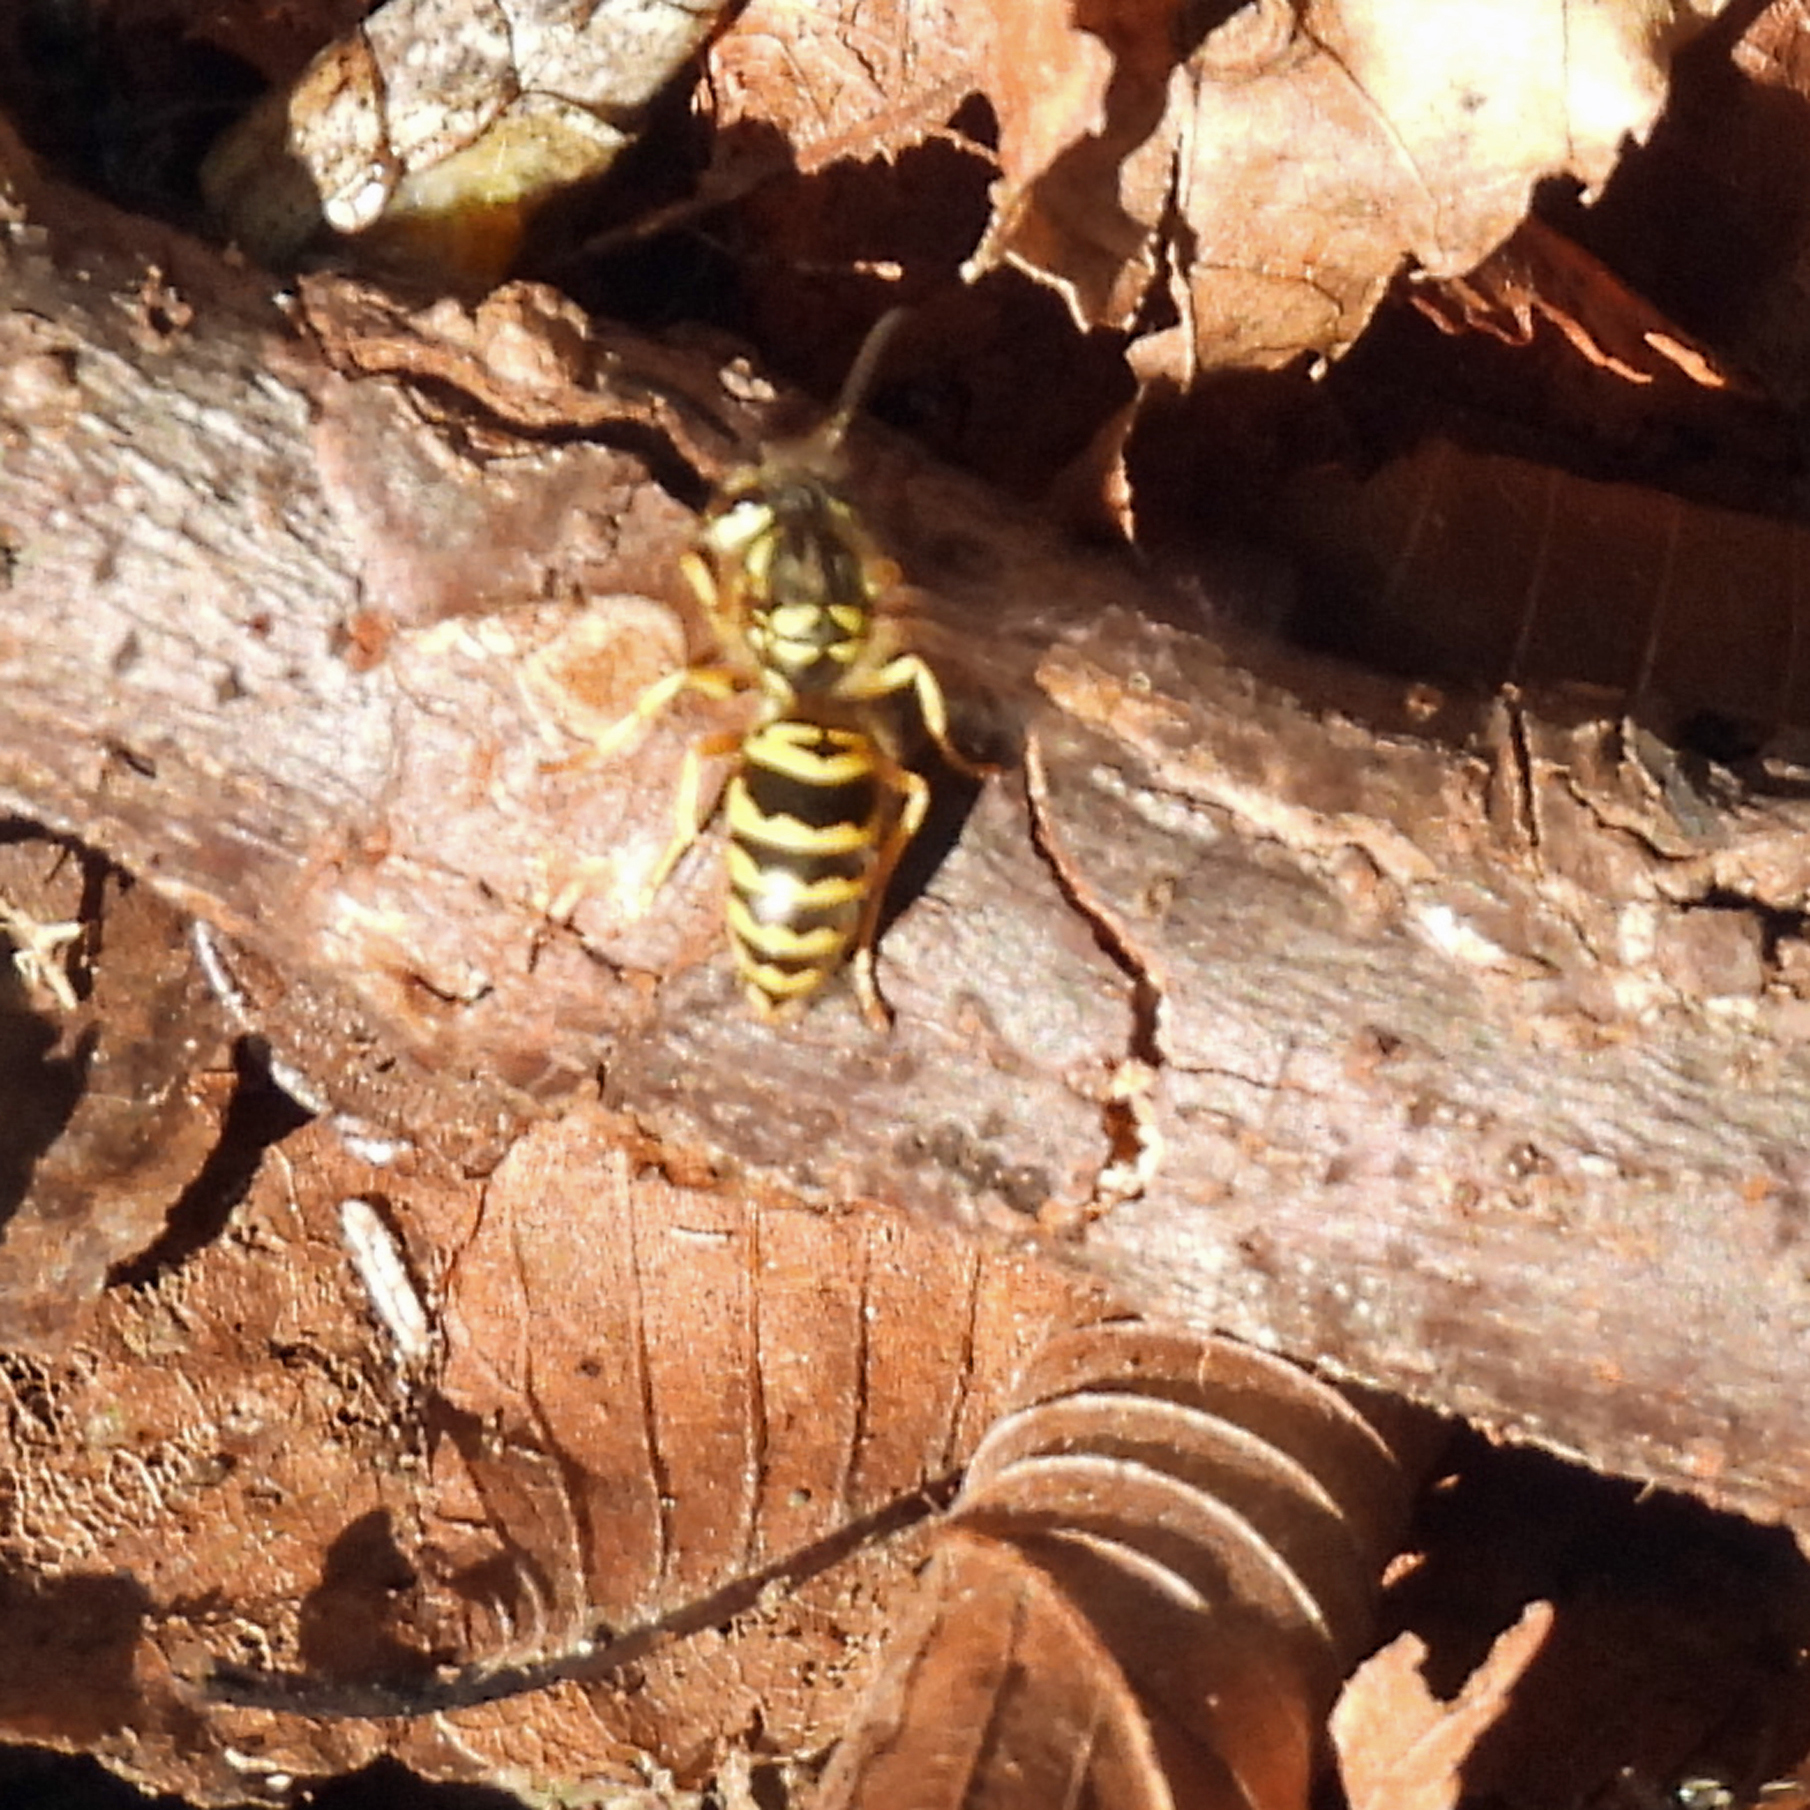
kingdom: Animalia
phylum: Arthropoda
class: Insecta
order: Hymenoptera
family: Vespidae
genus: Vespula
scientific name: Vespula maculifrons
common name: Eastern yellowjacket
